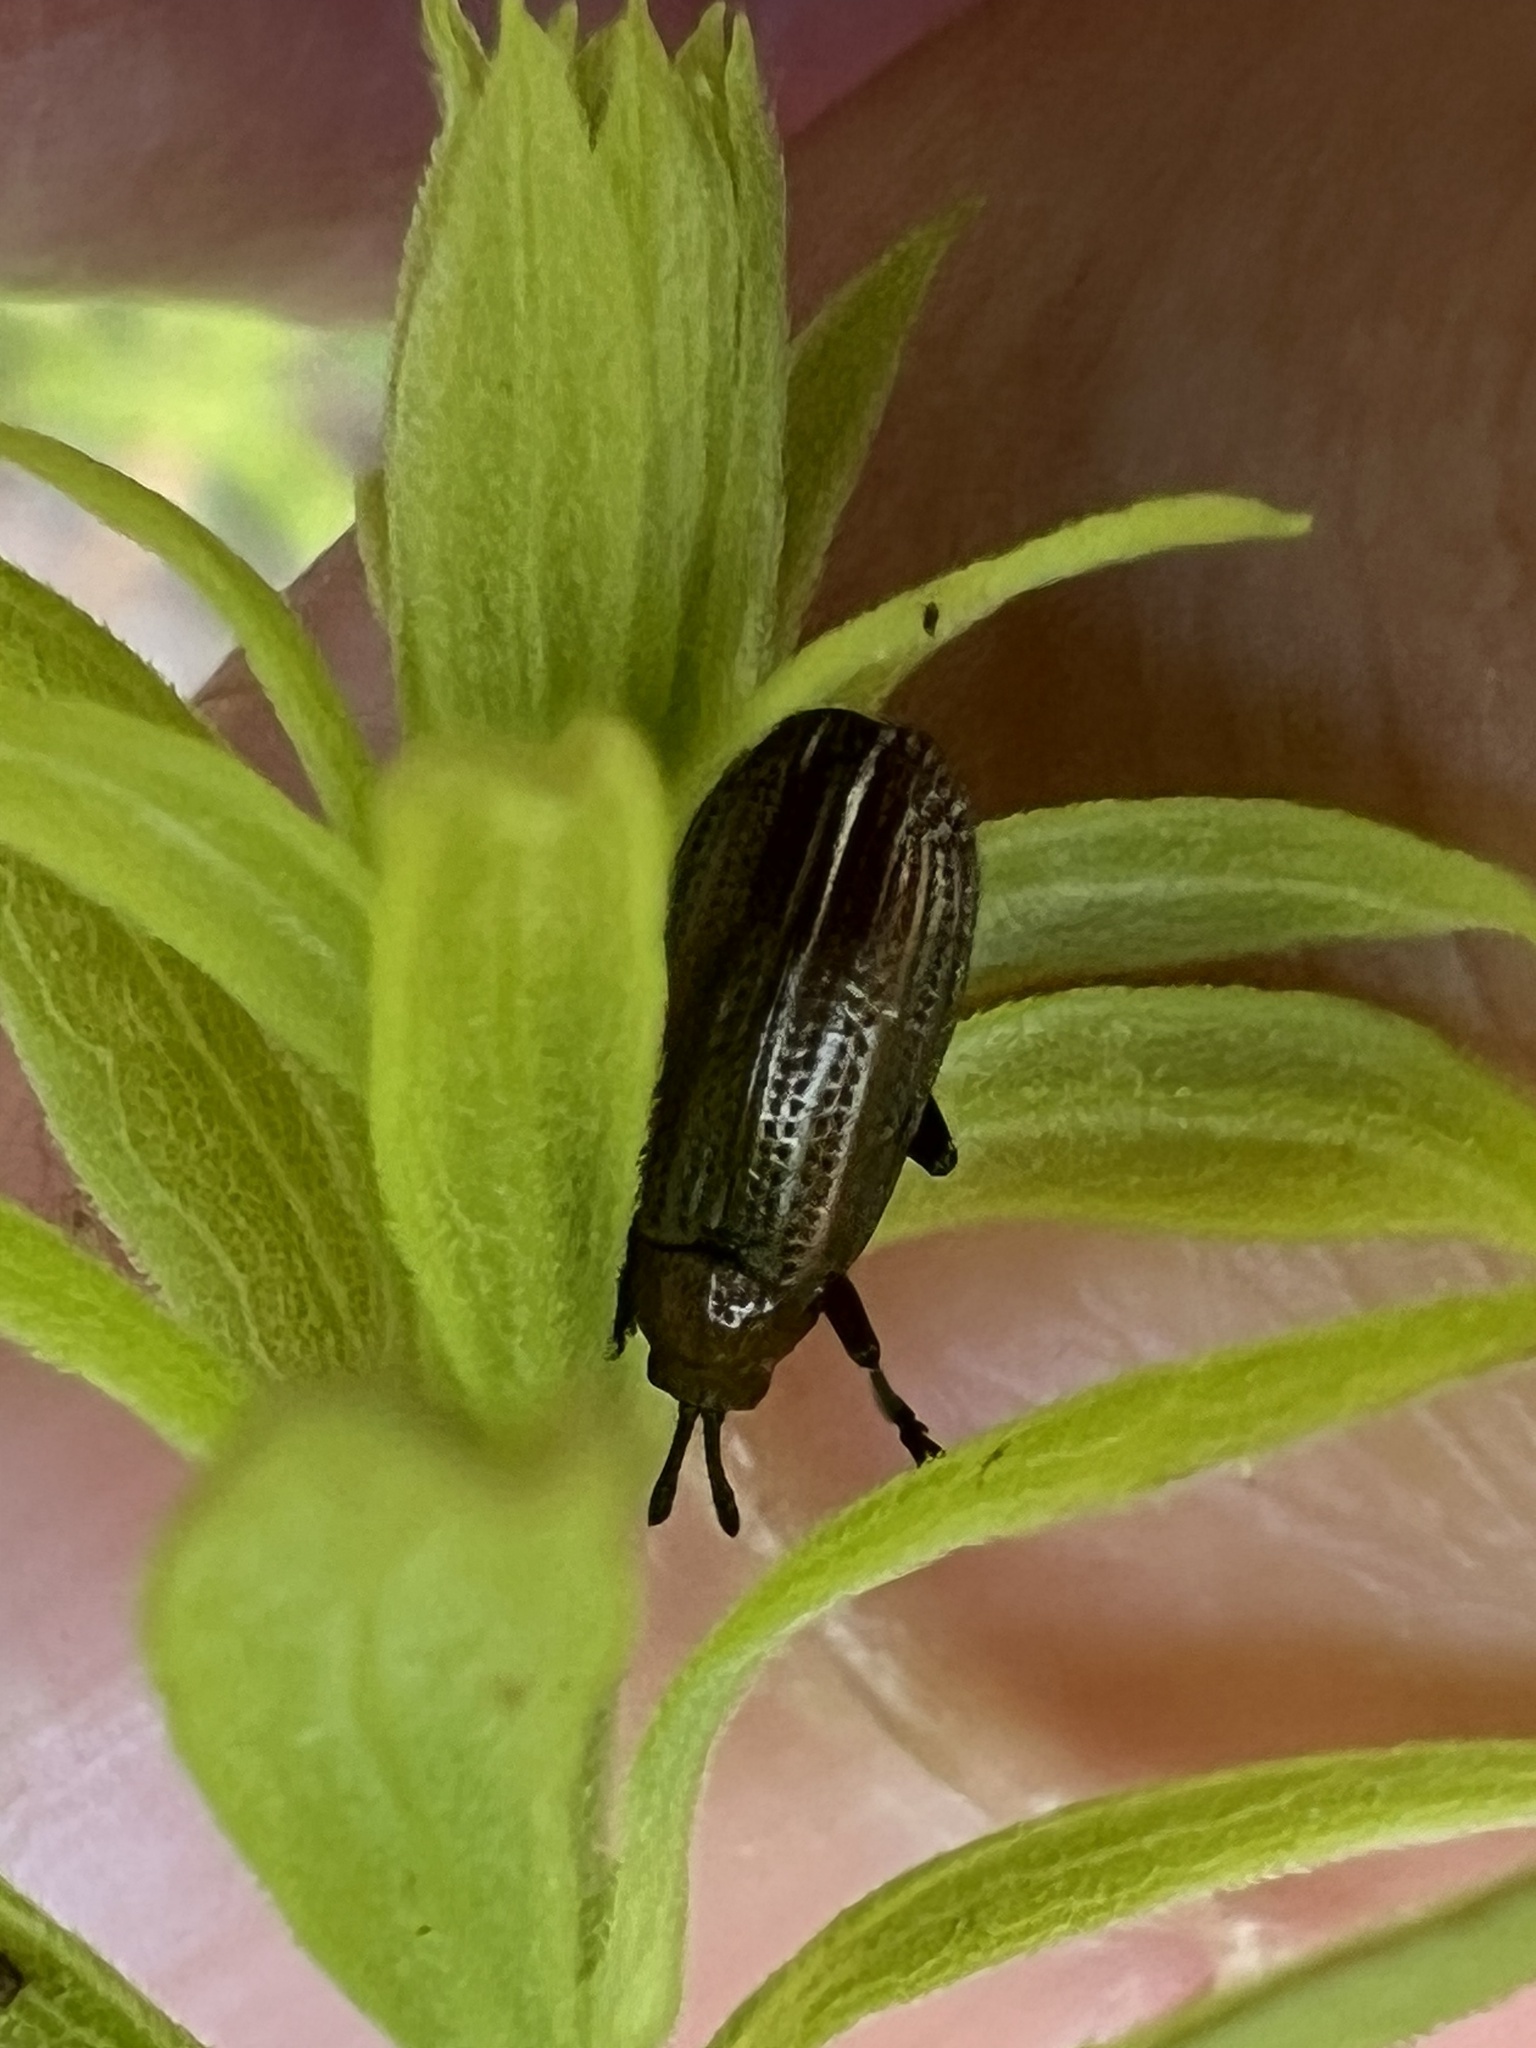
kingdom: Animalia
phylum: Arthropoda
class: Insecta
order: Coleoptera
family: Chrysomelidae
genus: Microrhopala
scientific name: Microrhopala vittata
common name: Goldenrod leaf miner beetle
